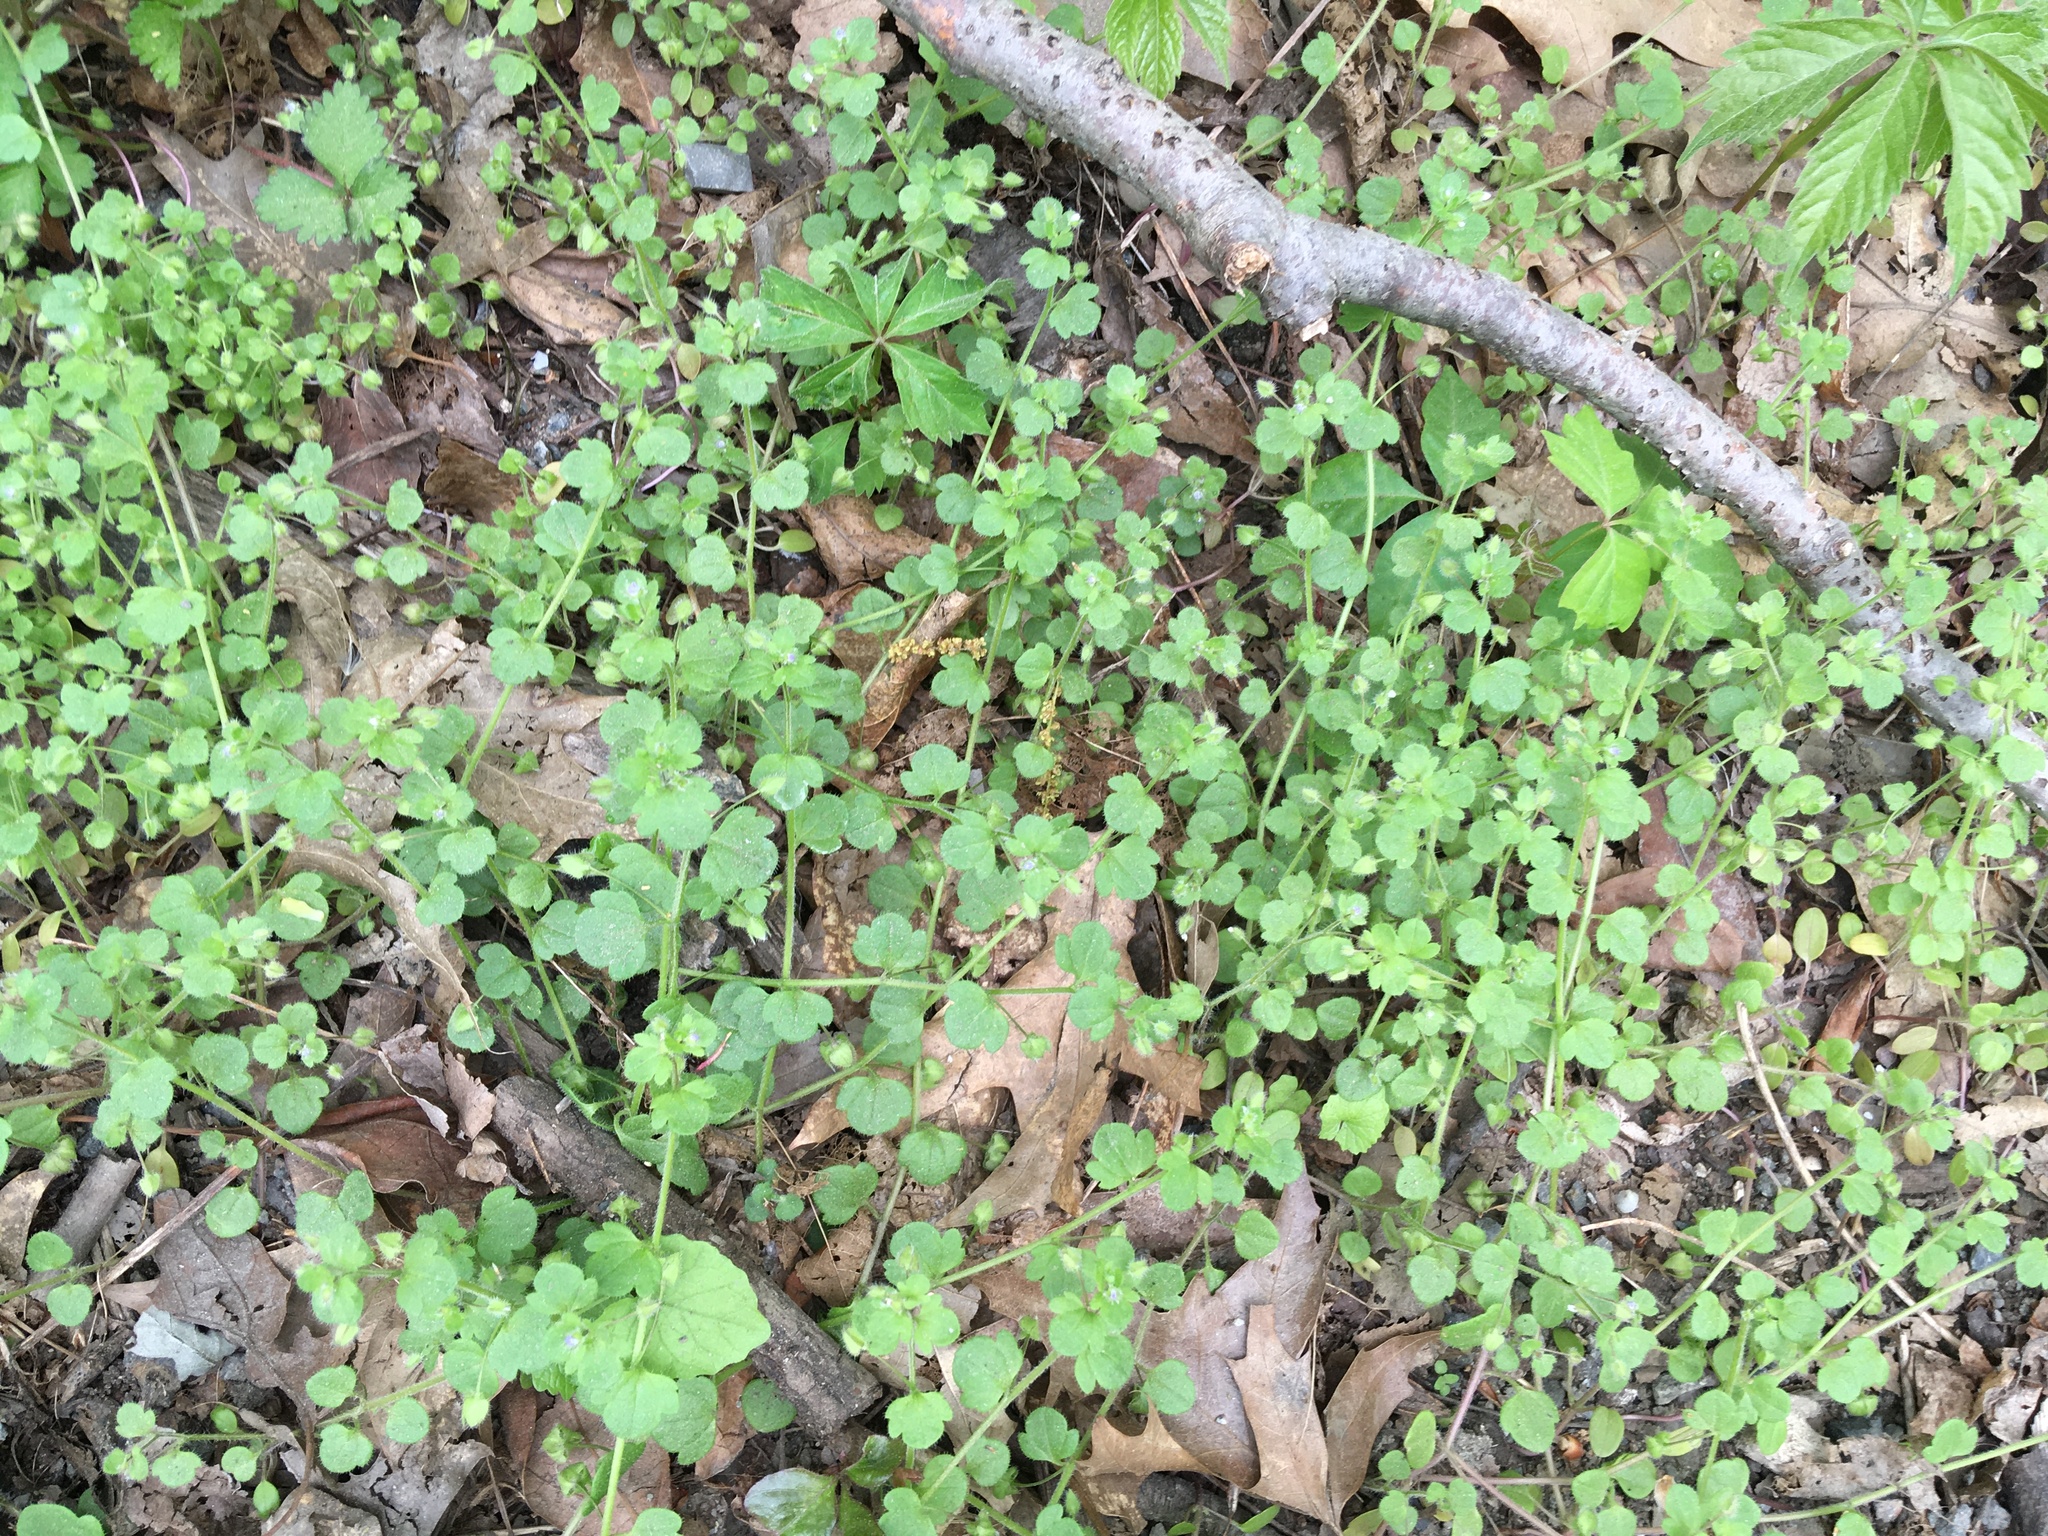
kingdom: Plantae
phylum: Tracheophyta
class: Magnoliopsida
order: Lamiales
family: Plantaginaceae
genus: Veronica
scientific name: Veronica hederifolia
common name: Ivy-leaved speedwell
